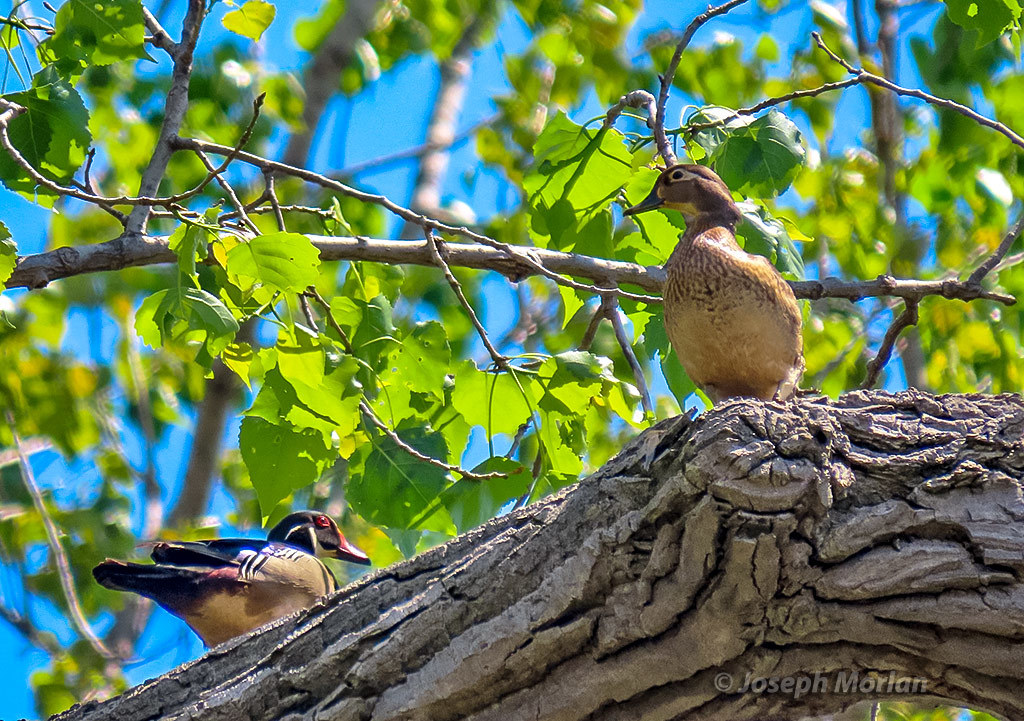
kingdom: Animalia
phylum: Chordata
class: Aves
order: Anseriformes
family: Anatidae
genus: Aix
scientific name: Aix sponsa
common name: Wood duck
